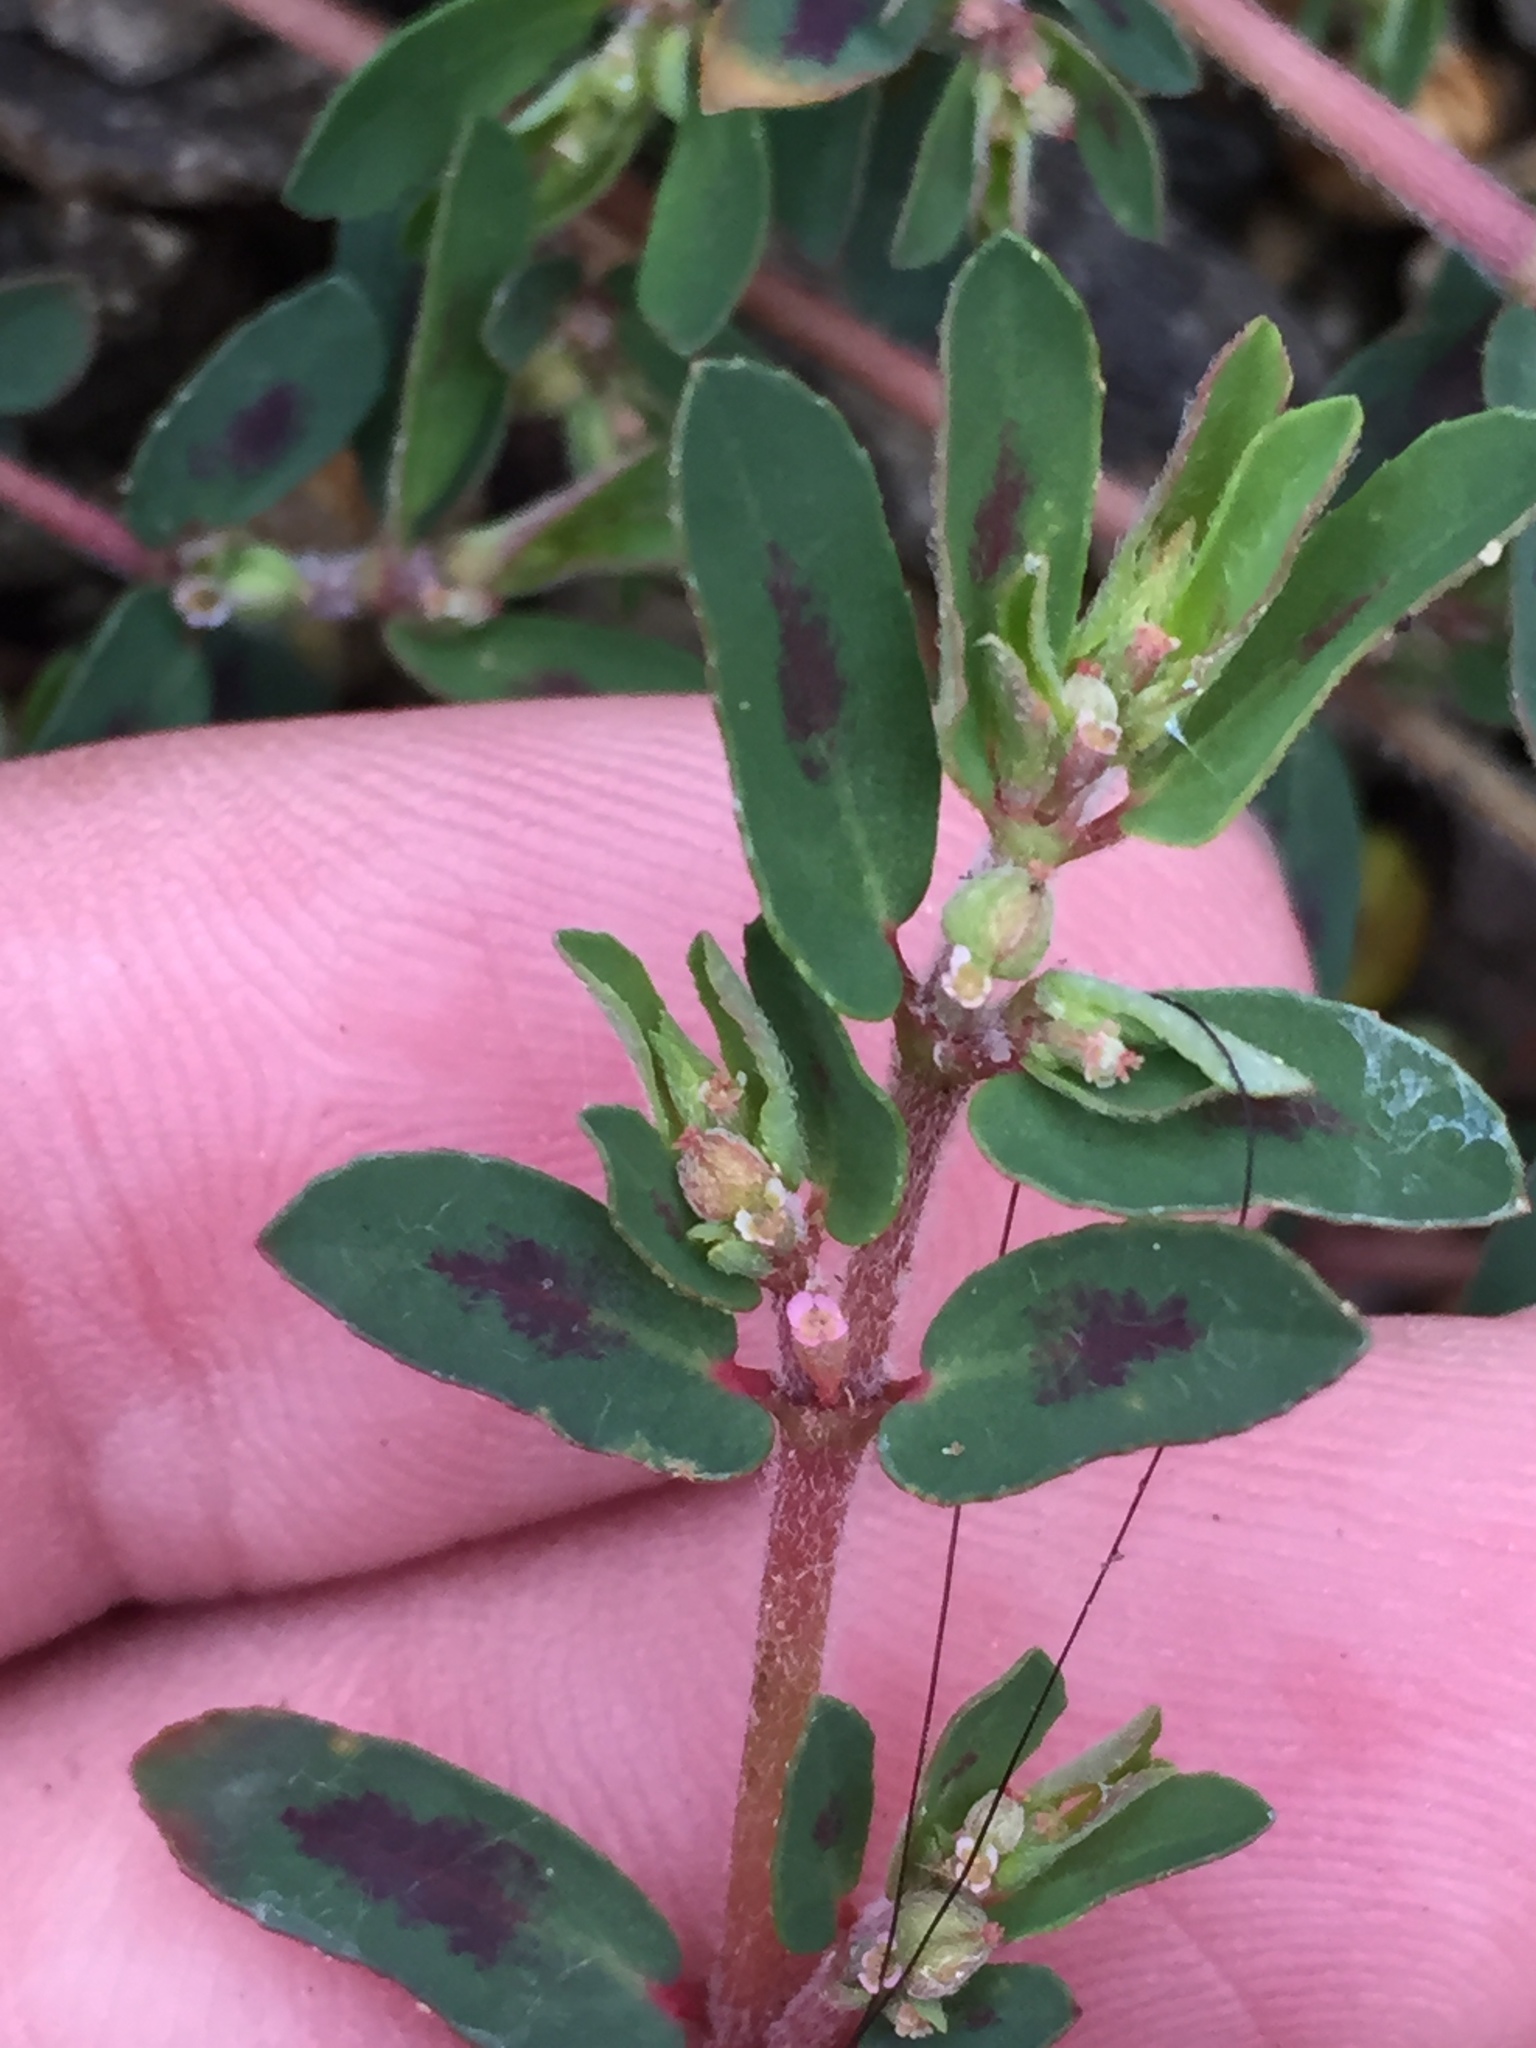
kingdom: Plantae
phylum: Tracheophyta
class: Magnoliopsida
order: Malpighiales
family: Euphorbiaceae
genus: Euphorbia
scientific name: Euphorbia maculata
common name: Spotted spurge
